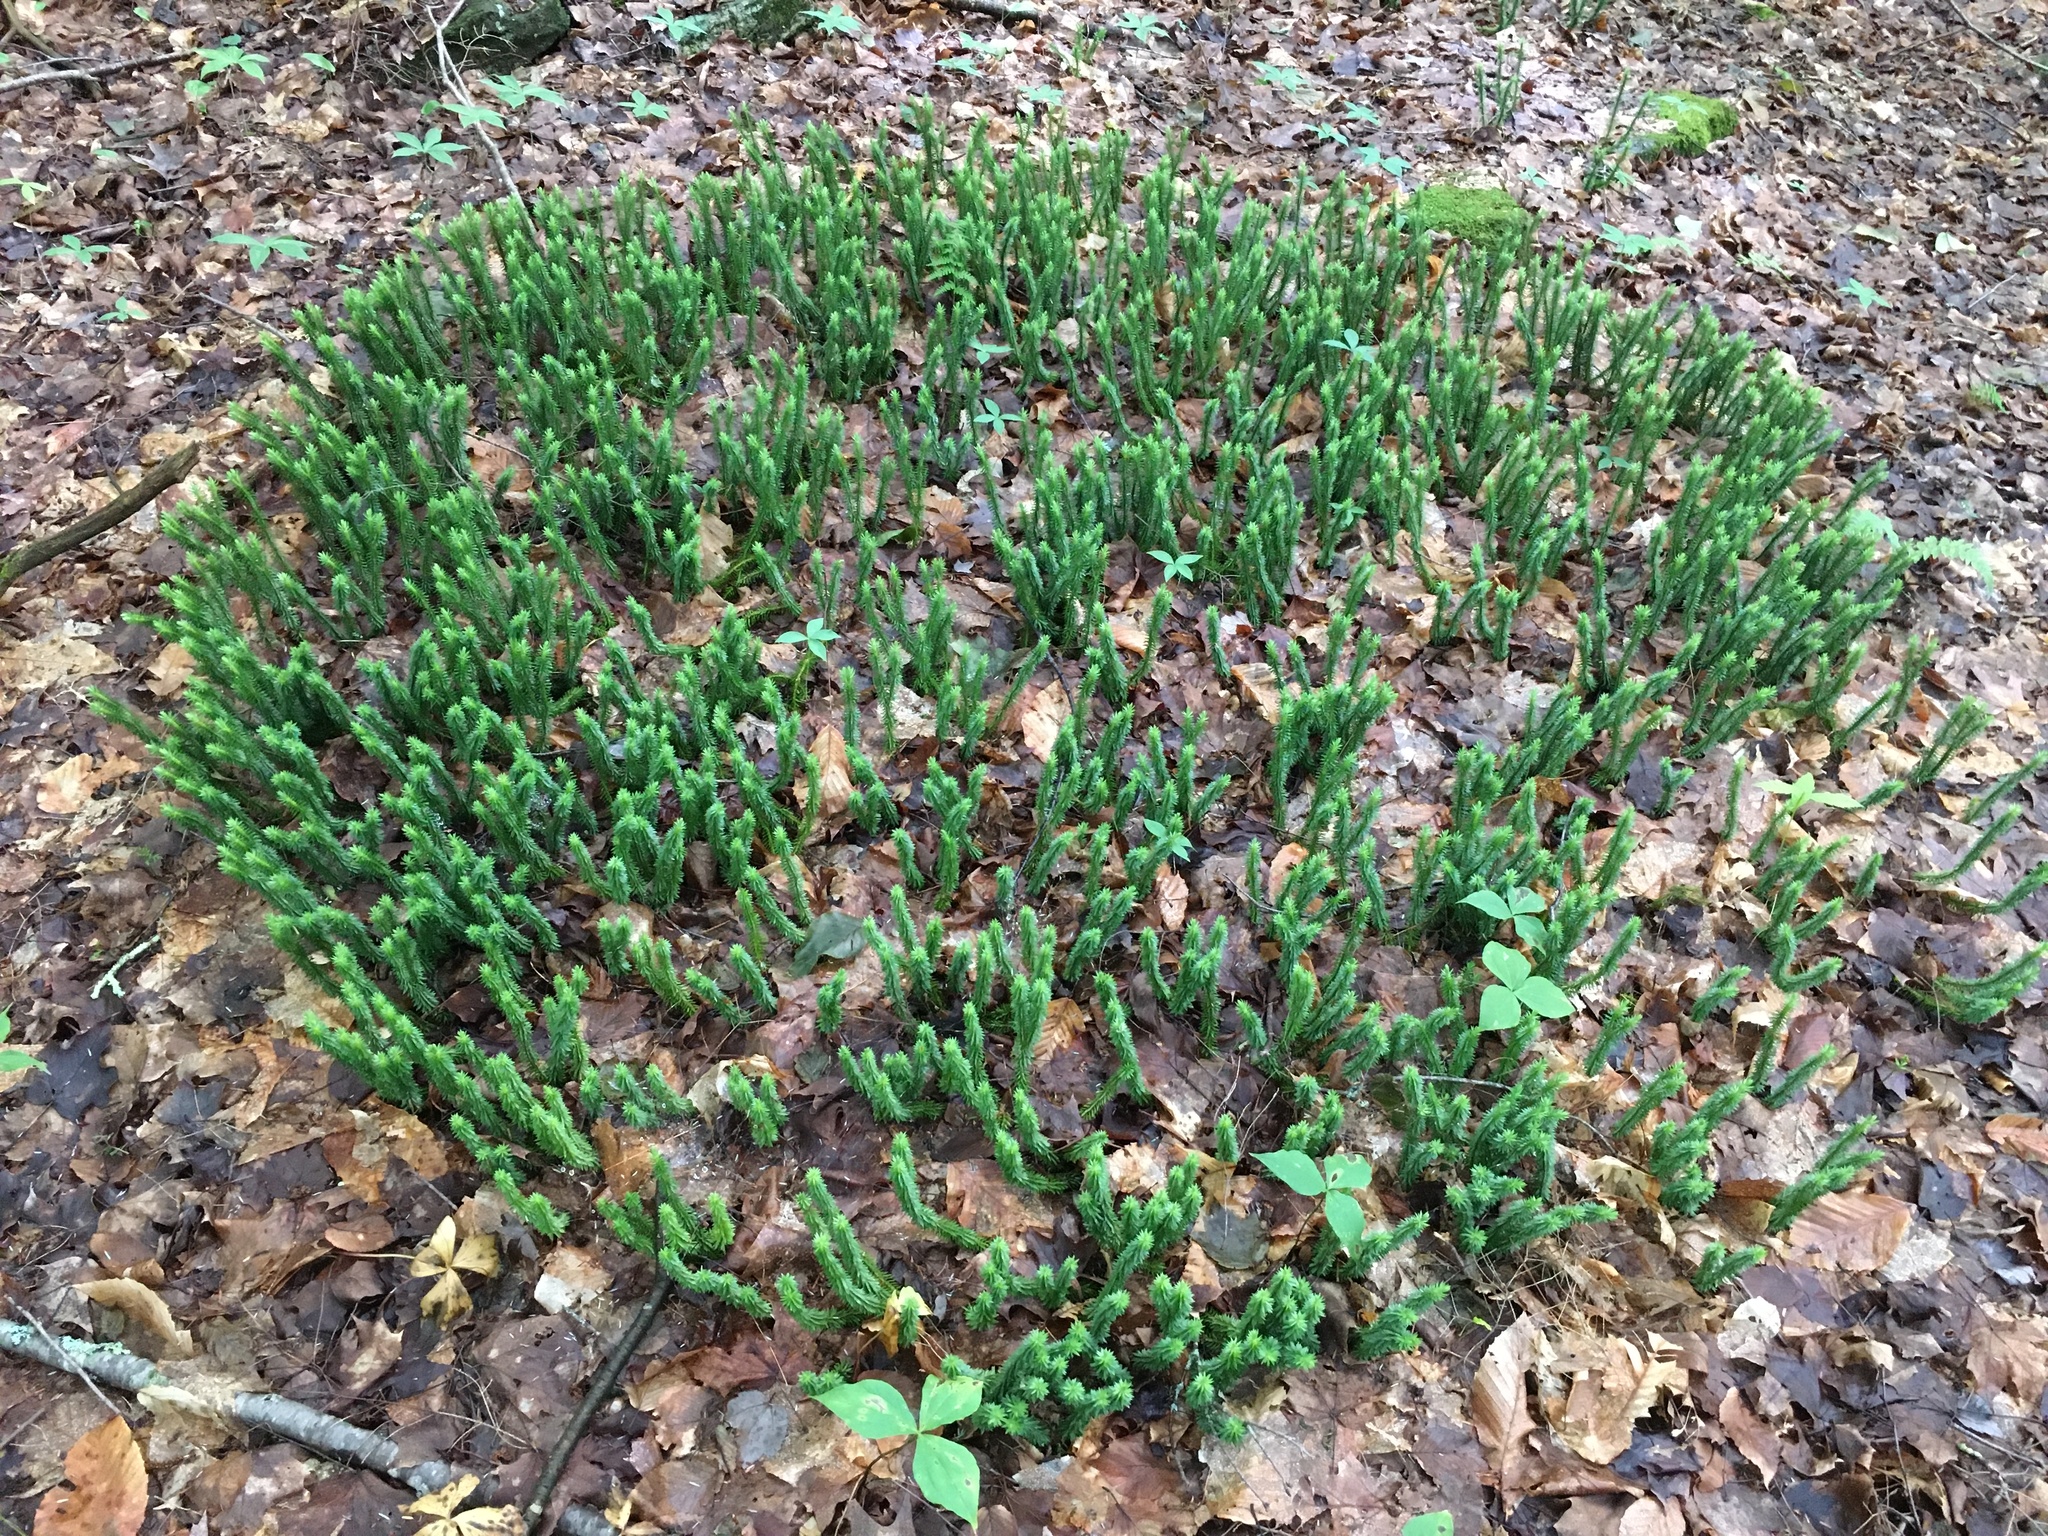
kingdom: Plantae
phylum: Tracheophyta
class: Lycopodiopsida
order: Lycopodiales
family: Lycopodiaceae
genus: Huperzia
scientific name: Huperzia lucidula
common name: Shining clubmoss
